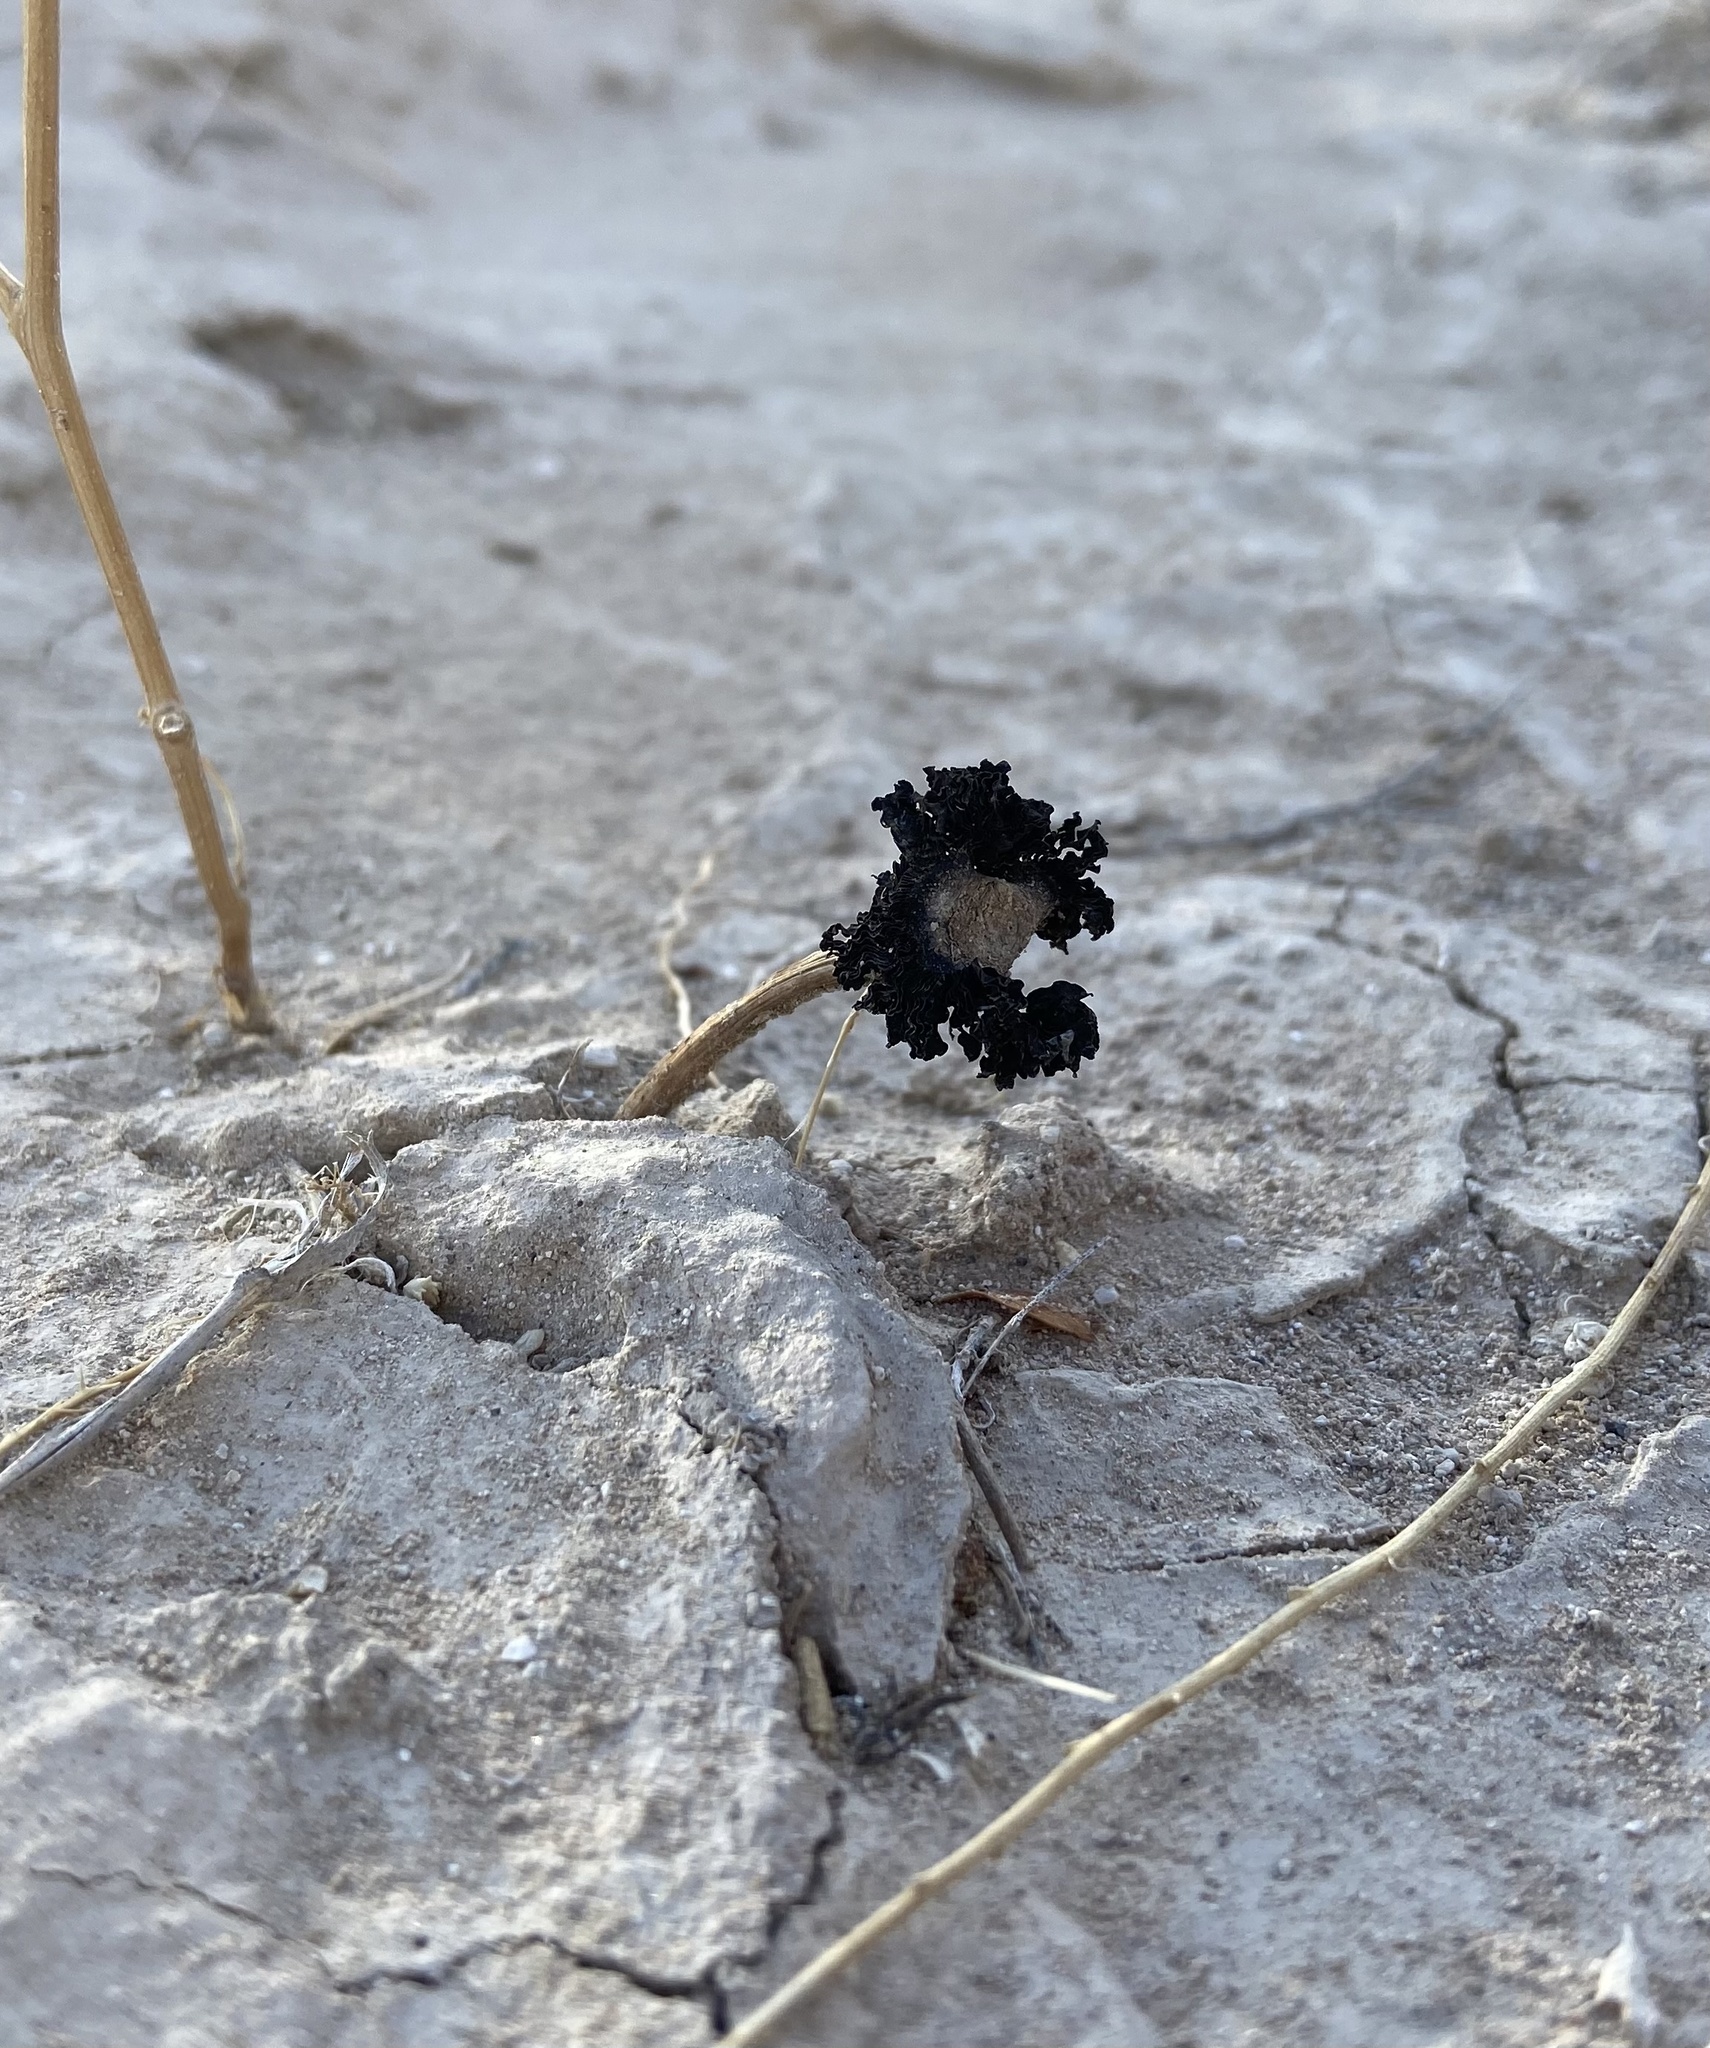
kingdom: Fungi
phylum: Basidiomycota
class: Agaricomycetes
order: Agaricales
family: Agaricaceae
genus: Montagnea
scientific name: Montagnea arenaria
